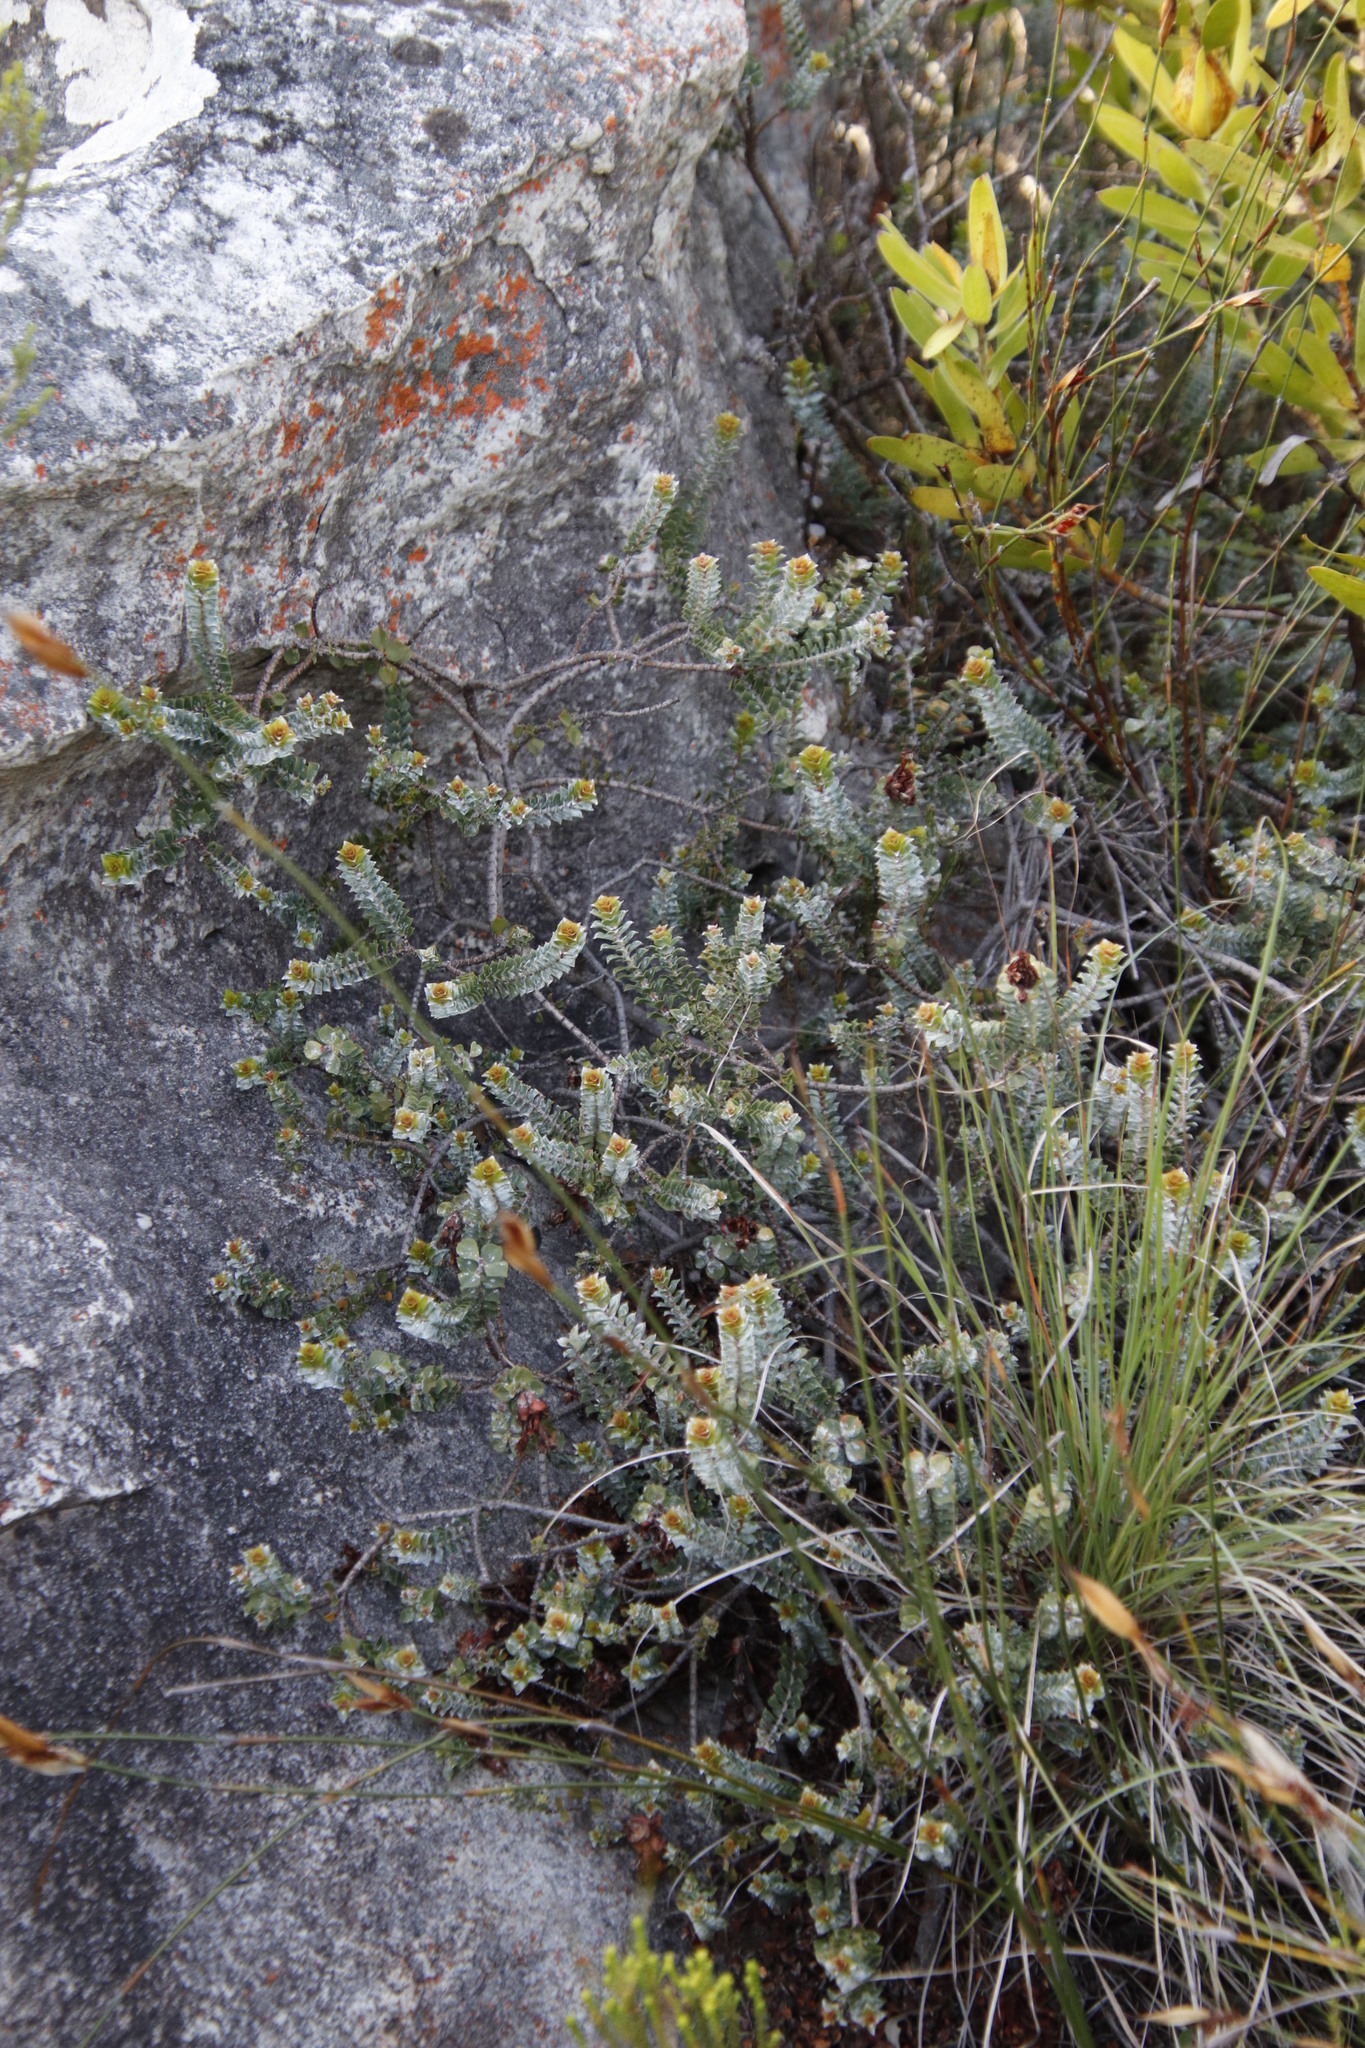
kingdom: Plantae
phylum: Tracheophyta
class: Magnoliopsida
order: Myrtales
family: Penaeaceae
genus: Saltera
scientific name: Saltera sarcocolla
